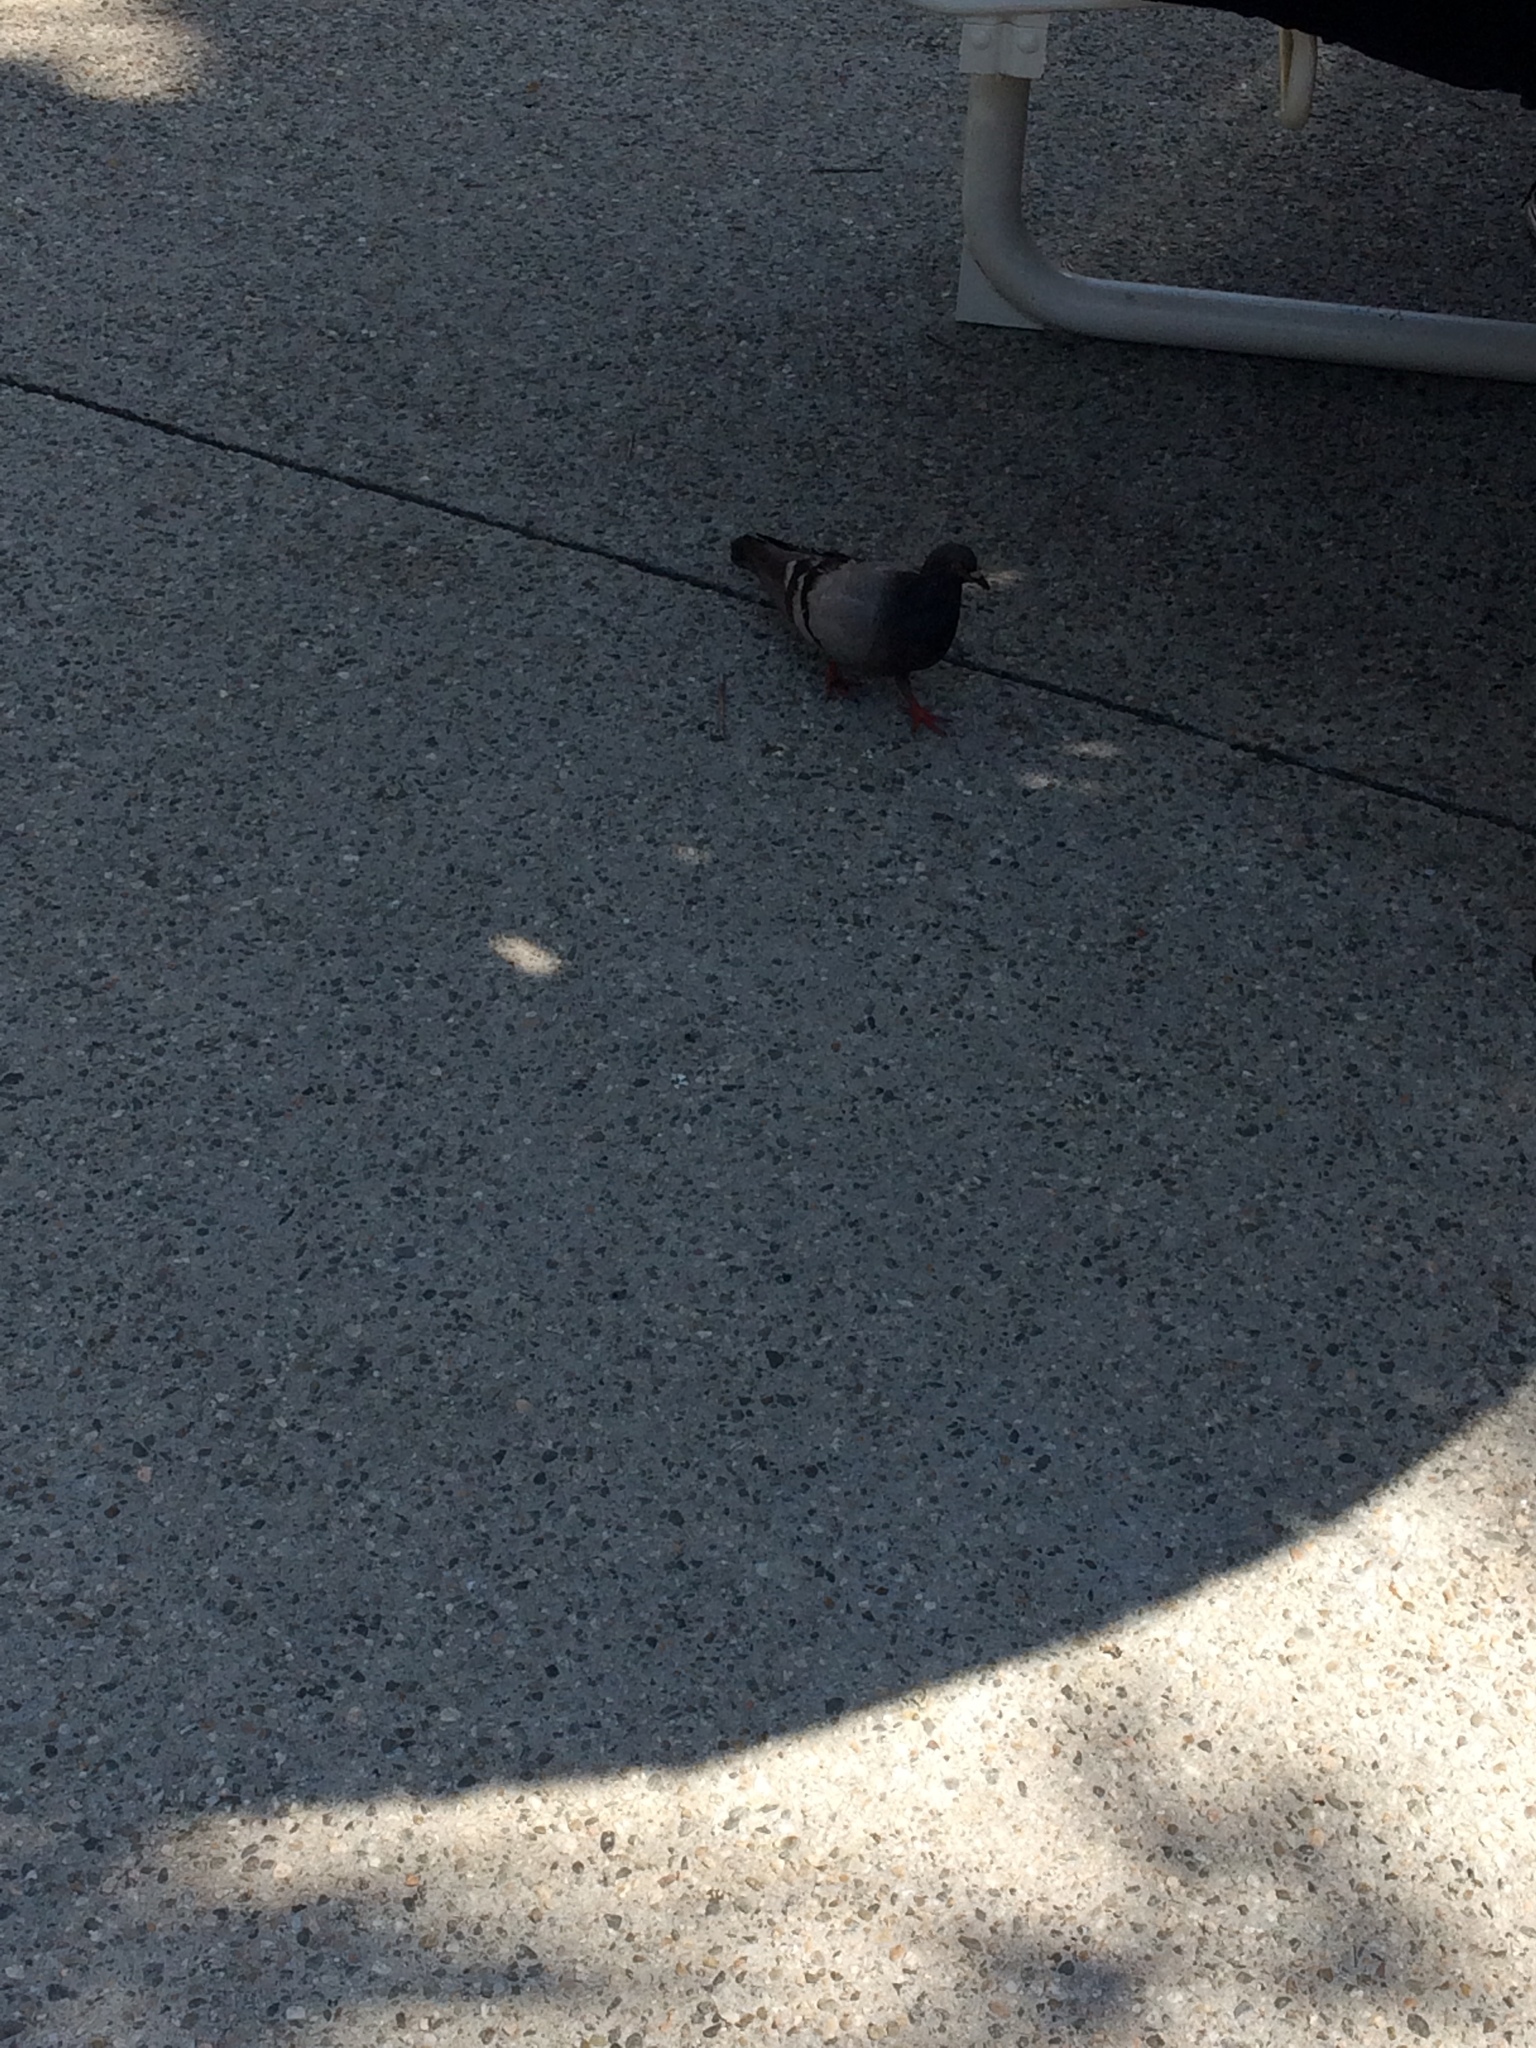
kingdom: Animalia
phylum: Chordata
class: Aves
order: Columbiformes
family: Columbidae
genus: Columba
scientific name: Columba livia
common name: Rock pigeon
